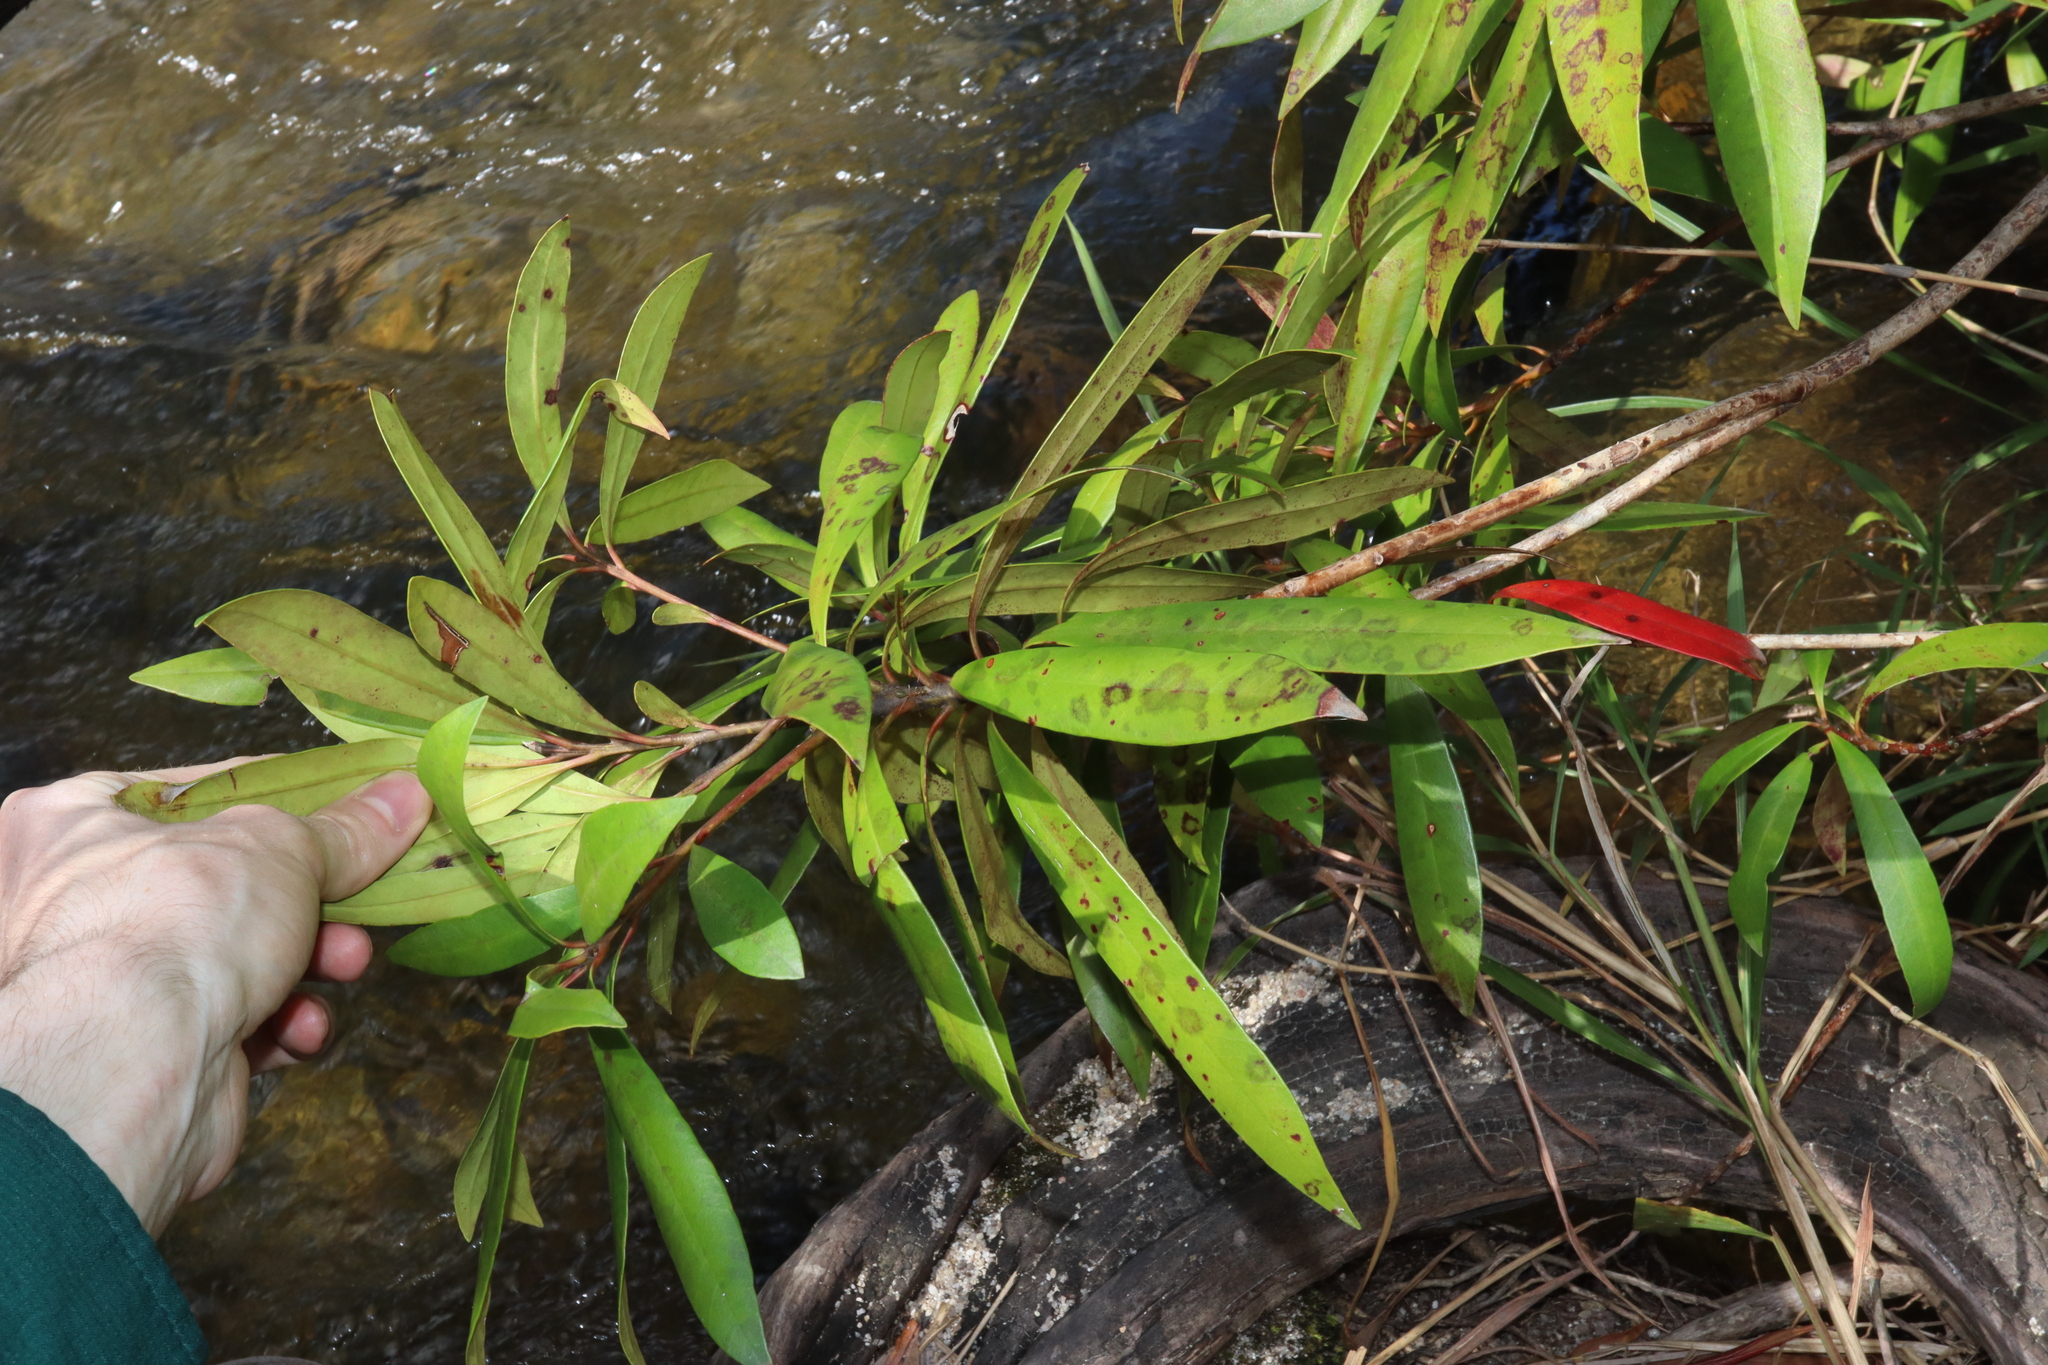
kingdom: Plantae
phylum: Tracheophyta
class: Magnoliopsida
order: Myrtales
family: Myrtaceae
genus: Tristaniopsis
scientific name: Tristaniopsis exiliflora
